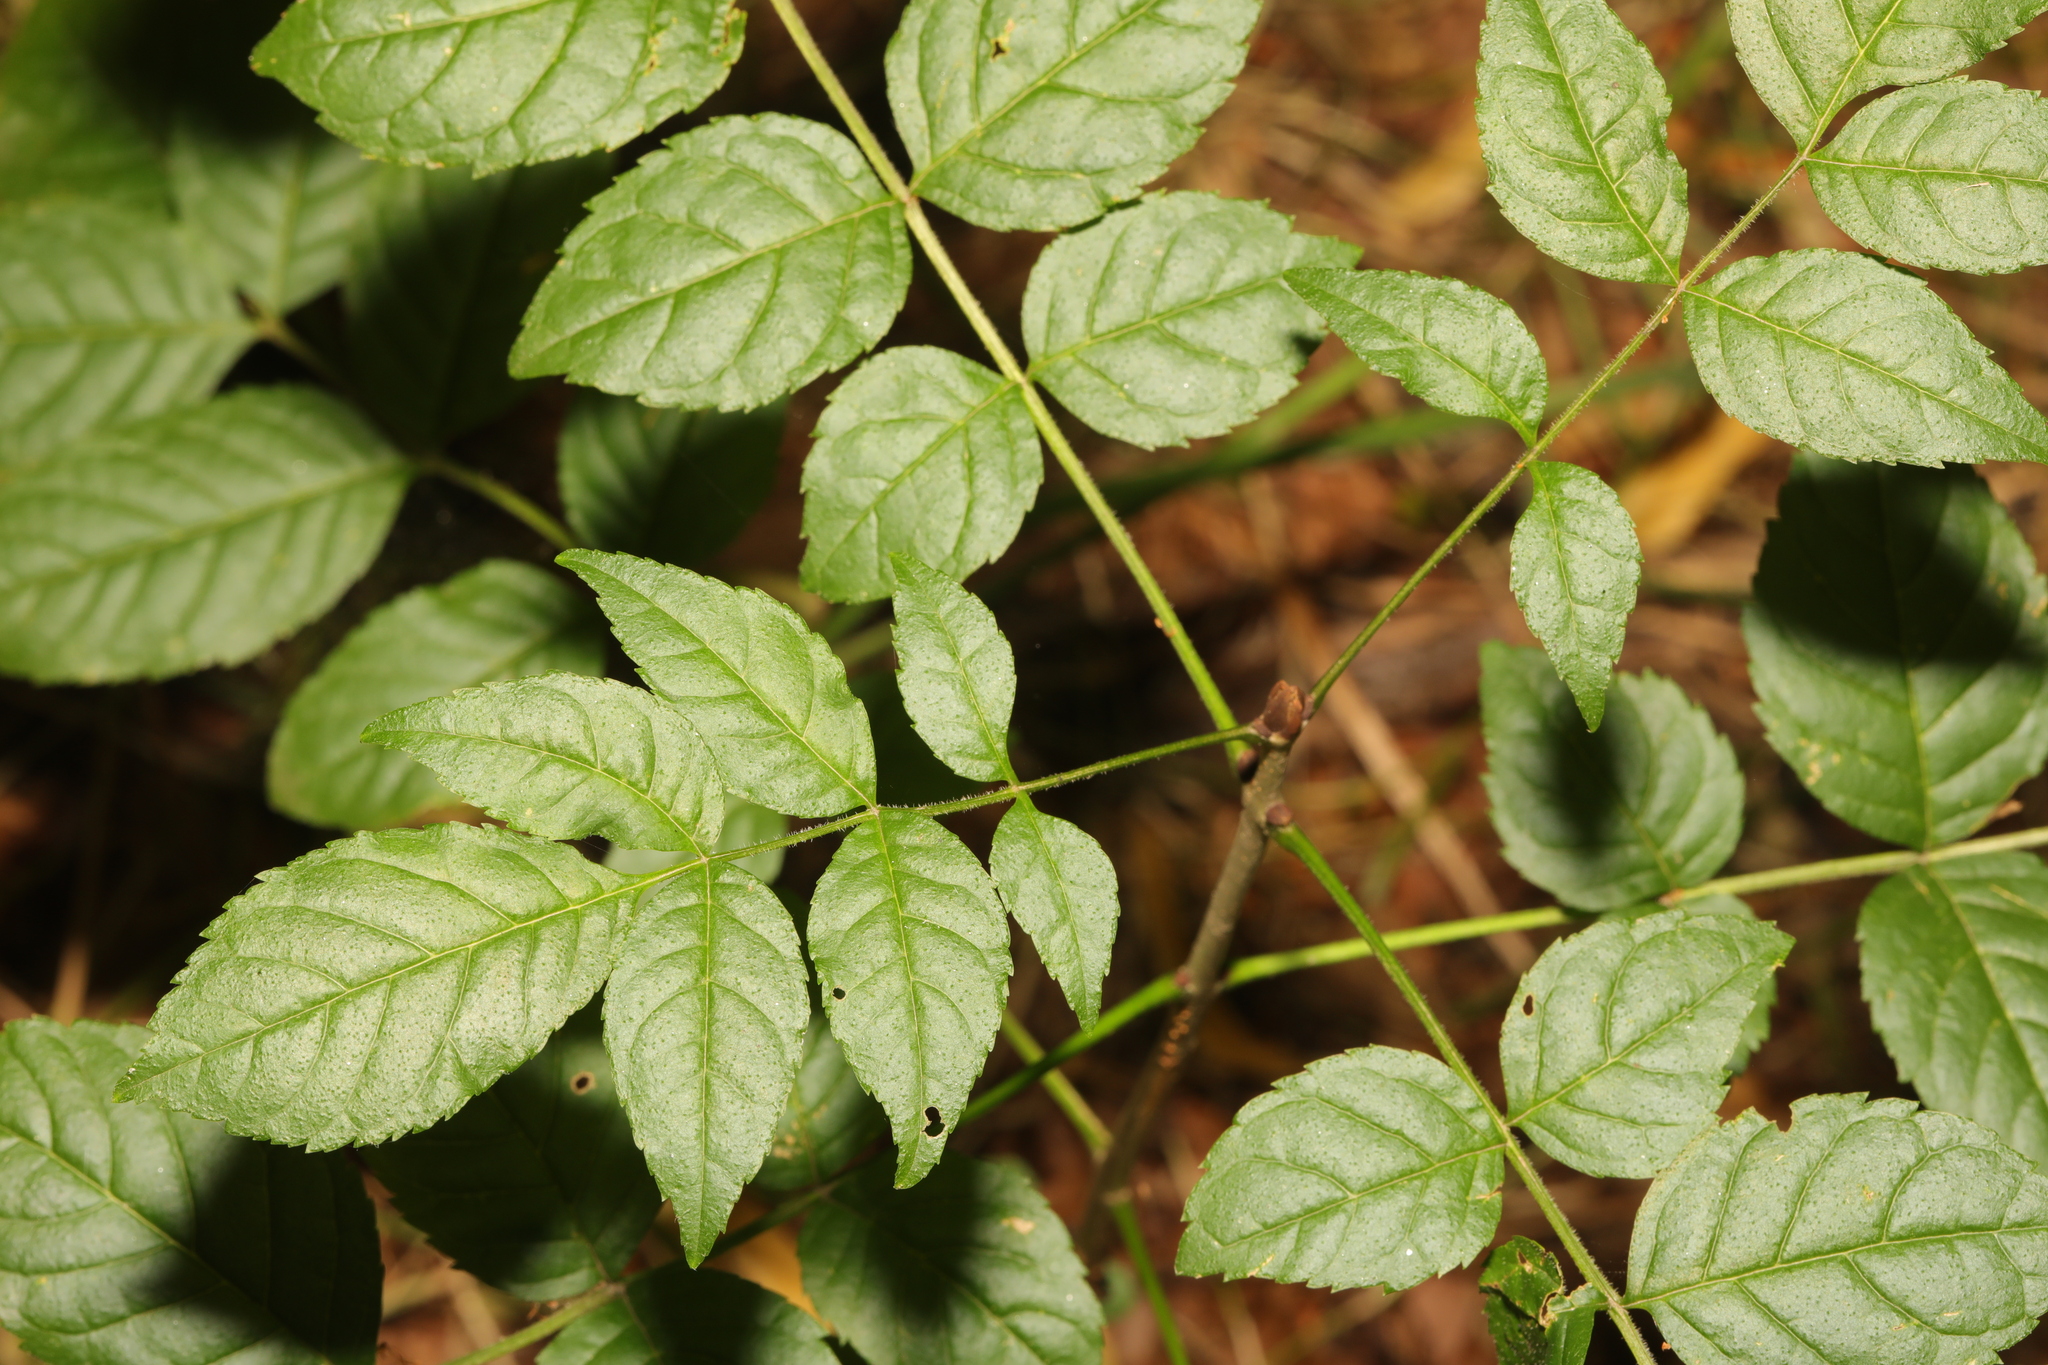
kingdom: Plantae
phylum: Tracheophyta
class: Magnoliopsida
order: Lamiales
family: Oleaceae
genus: Fraxinus
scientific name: Fraxinus excelsior
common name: European ash
